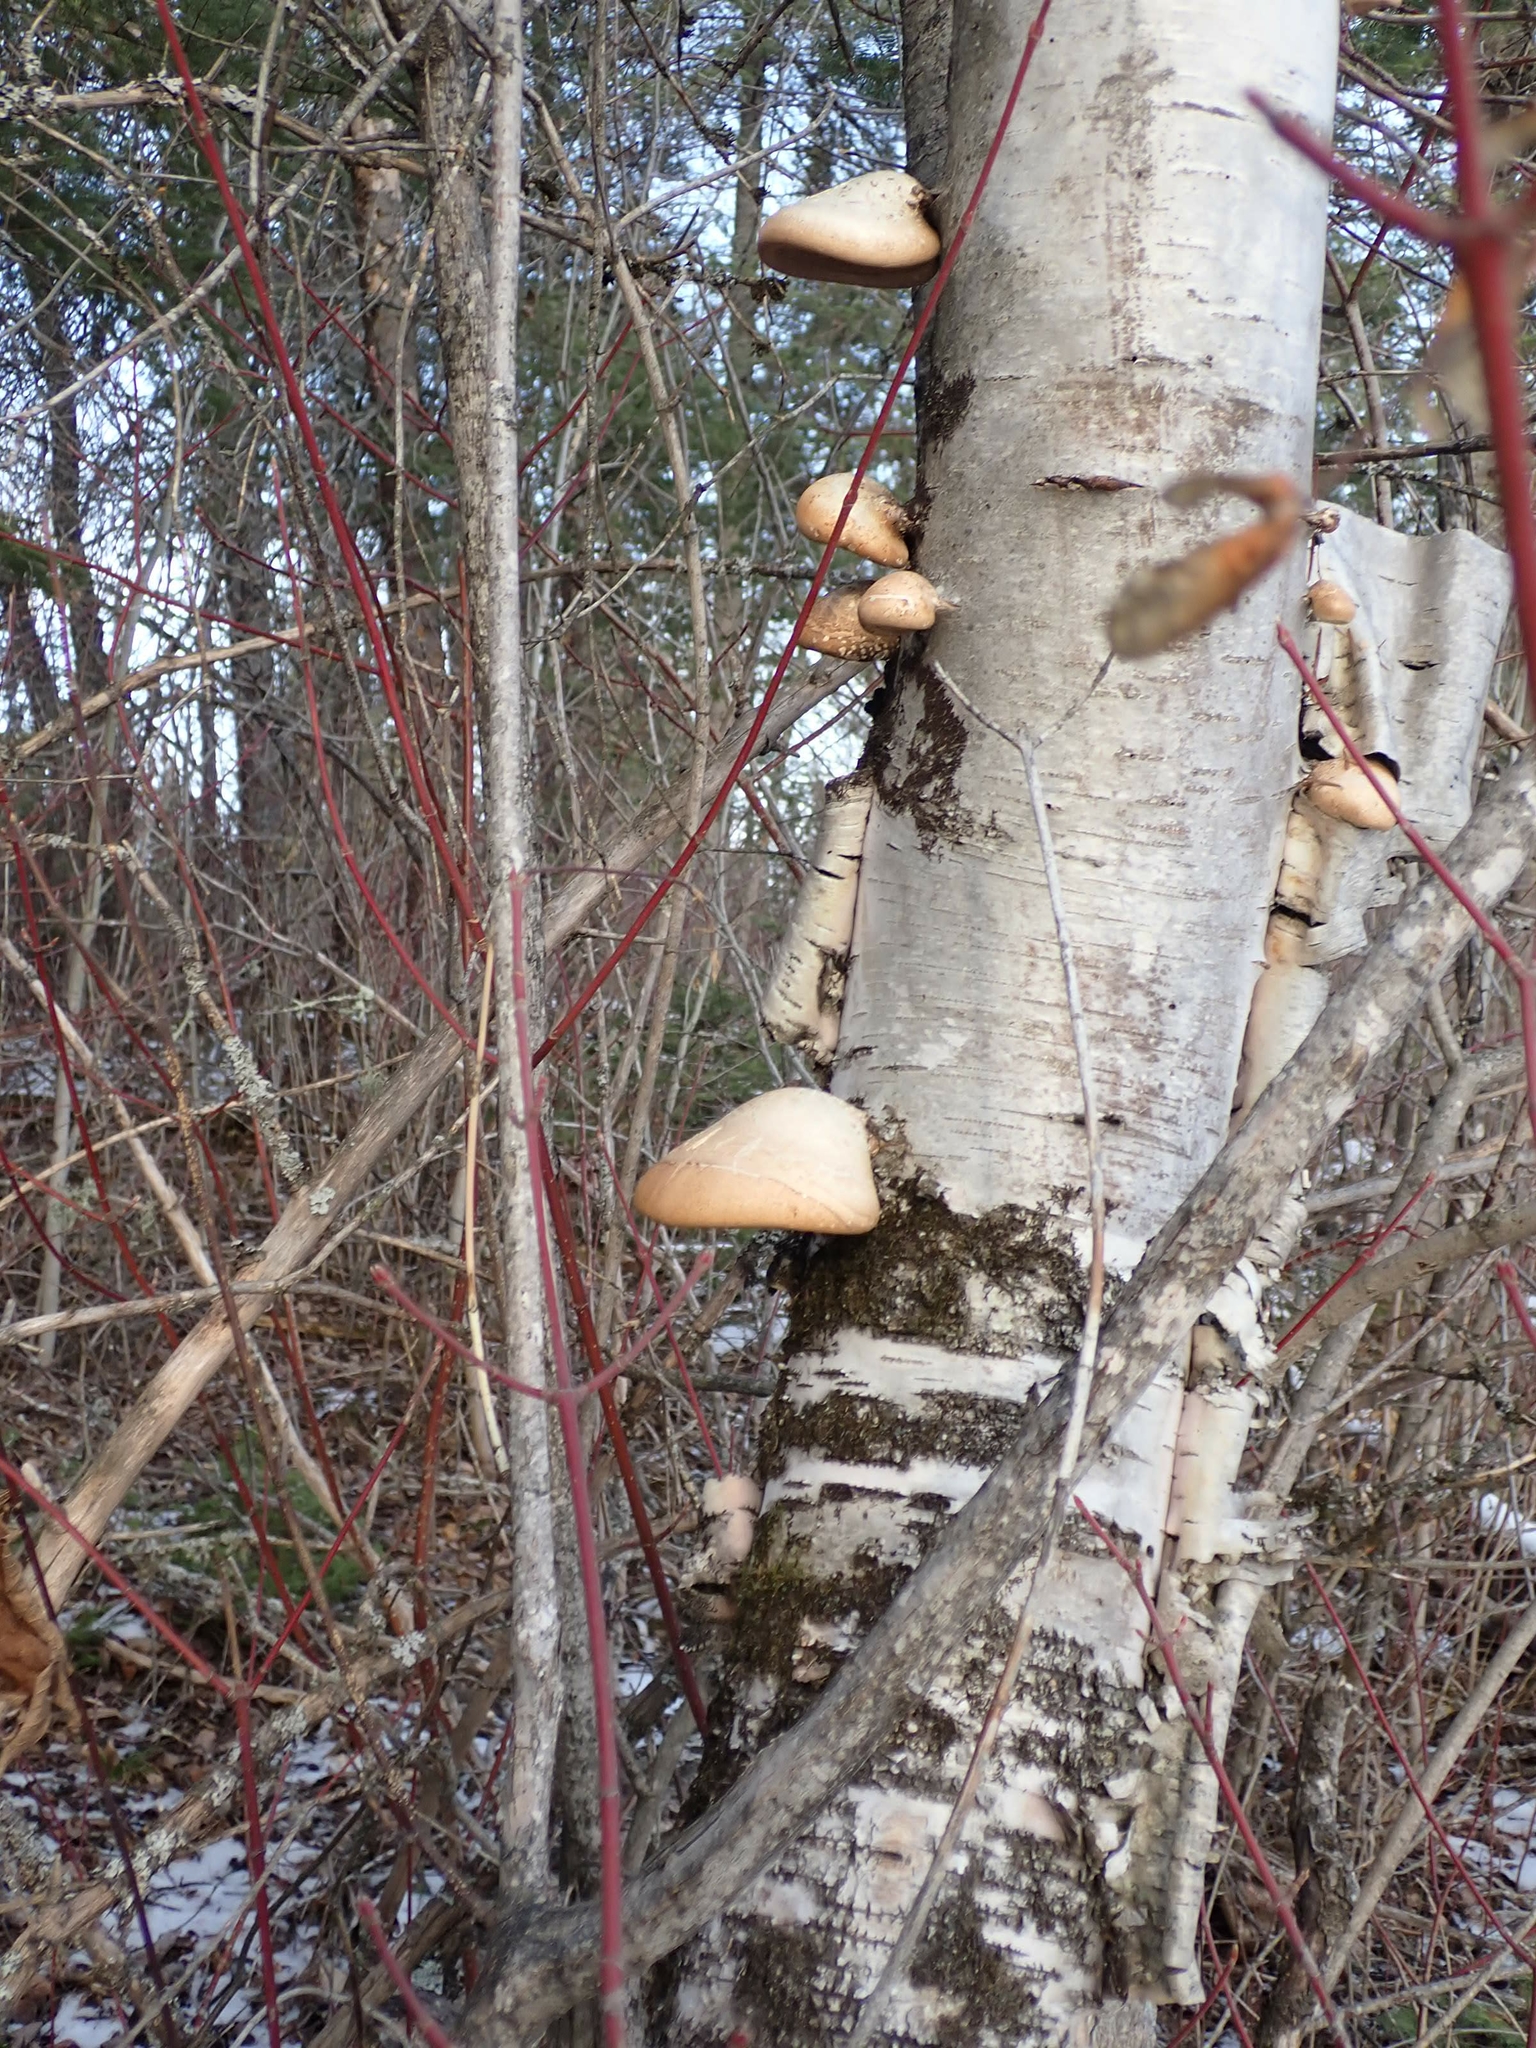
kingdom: Fungi
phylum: Basidiomycota
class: Agaricomycetes
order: Polyporales
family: Fomitopsidaceae
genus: Fomitopsis
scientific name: Fomitopsis betulina
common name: Birch polypore
